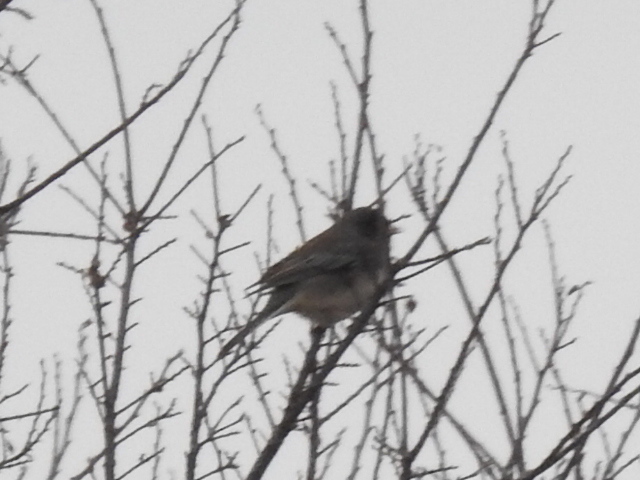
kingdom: Animalia
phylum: Chordata
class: Aves
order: Passeriformes
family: Passerellidae
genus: Junco
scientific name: Junco hyemalis
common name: Dark-eyed junco
